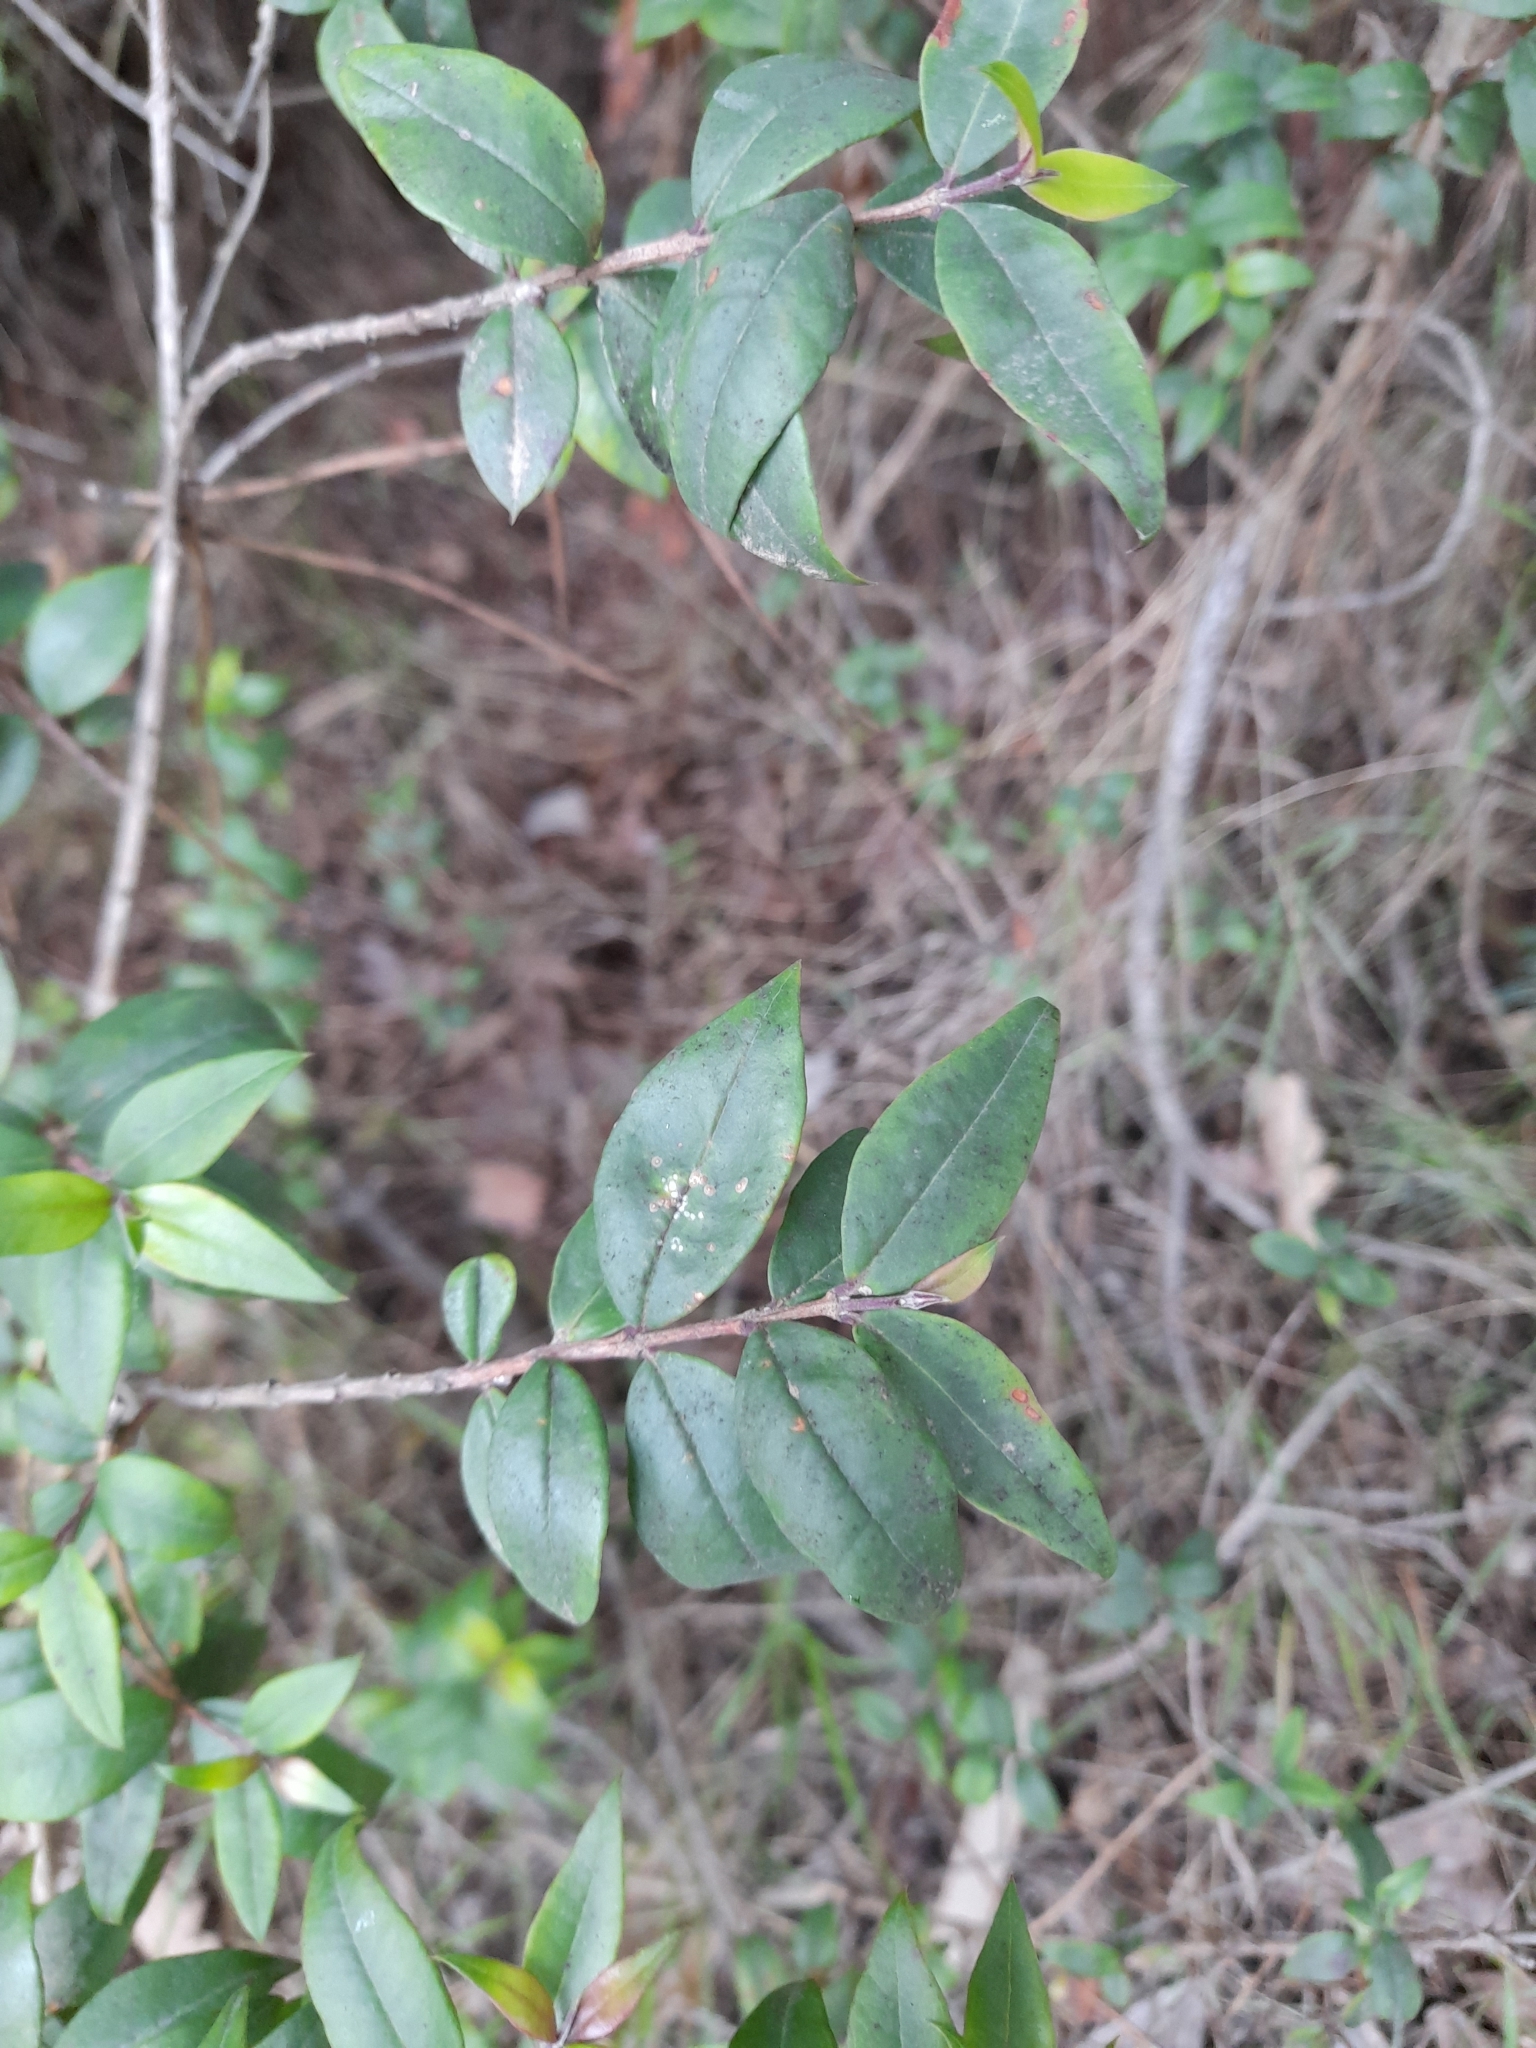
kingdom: Plantae
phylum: Tracheophyta
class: Magnoliopsida
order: Myrtales
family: Myrtaceae
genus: Myrtus
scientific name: Myrtus communis
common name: Myrtle
